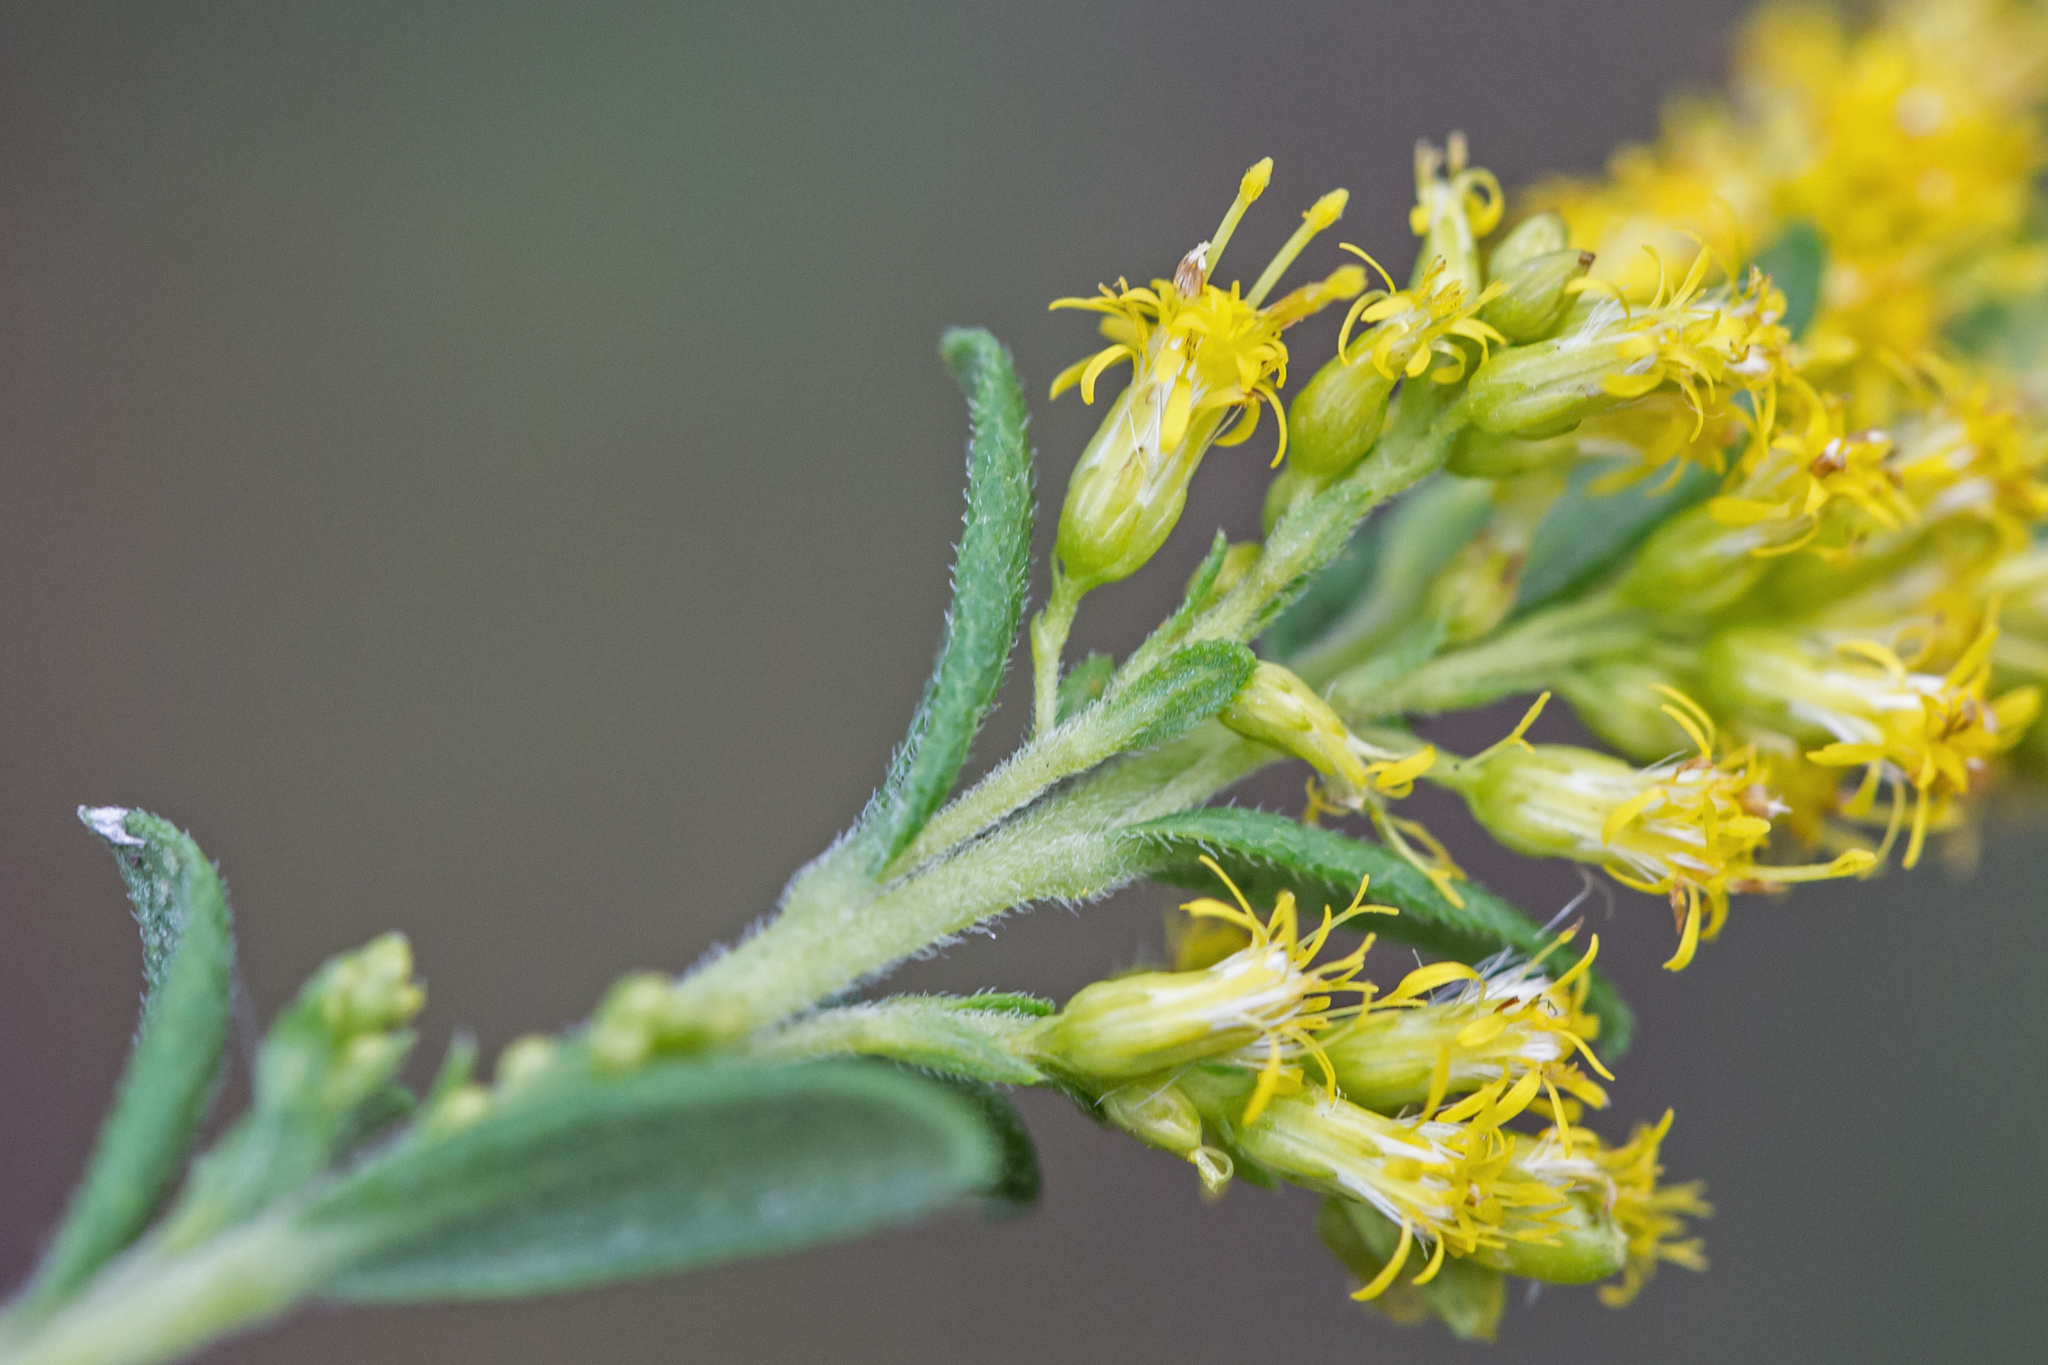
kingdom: Plantae
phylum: Tracheophyta
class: Magnoliopsida
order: Asterales
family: Asteraceae
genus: Solidago
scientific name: Solidago altissima
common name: Late goldenrod
